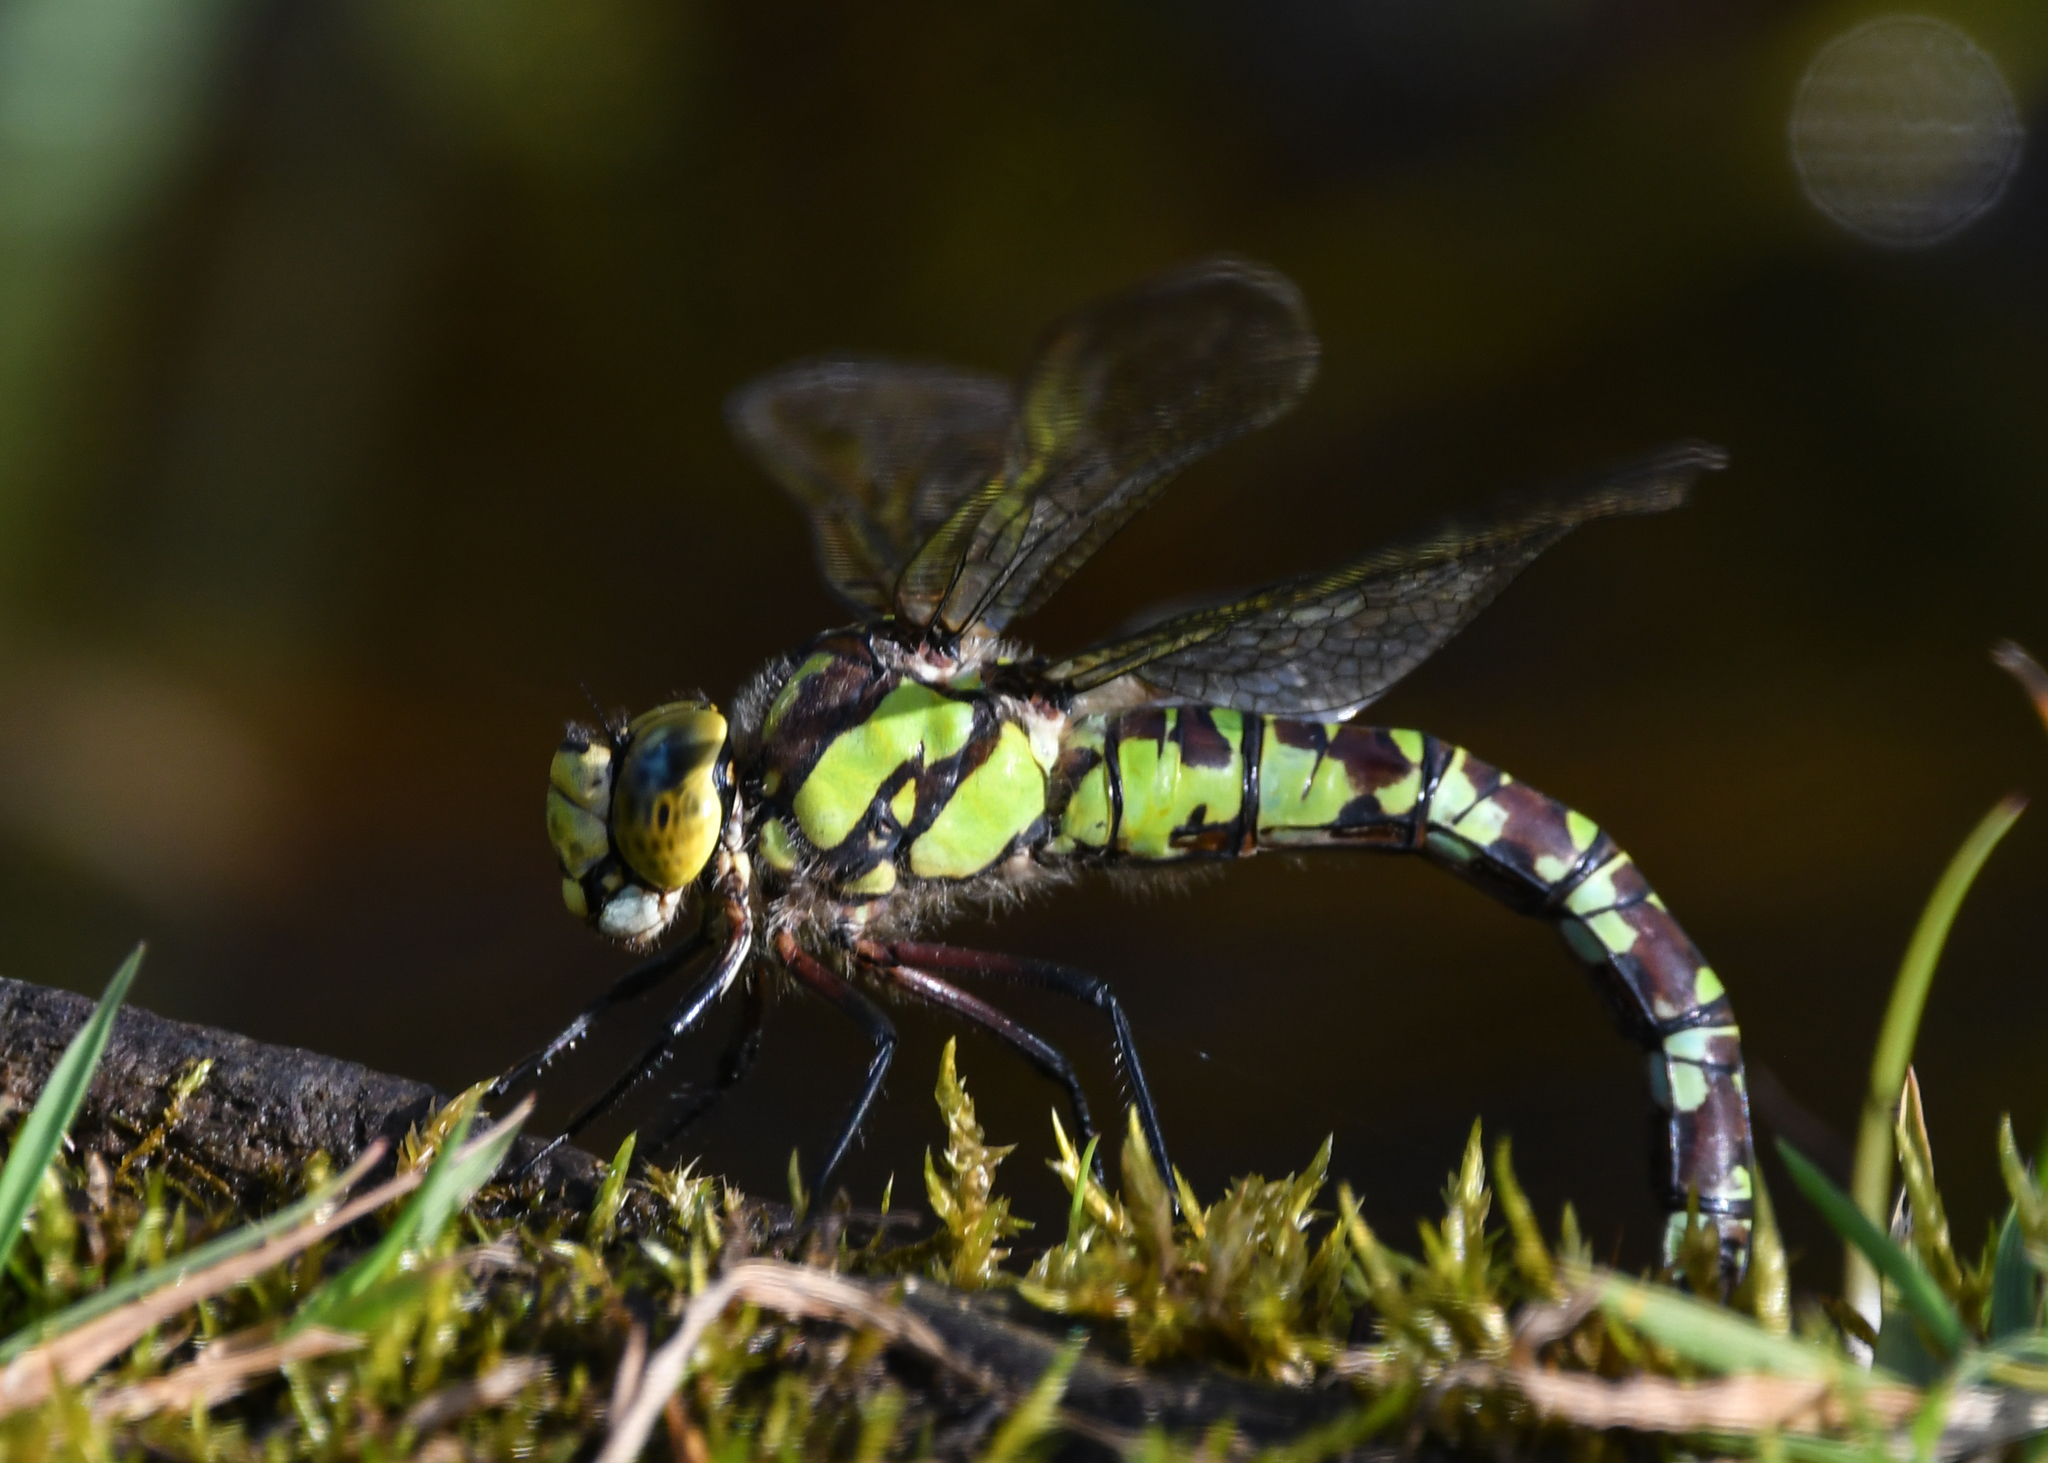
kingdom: Animalia
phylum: Arthropoda
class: Insecta
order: Odonata
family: Aeshnidae
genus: Aeshna
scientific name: Aeshna cyanea
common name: Southern hawker
